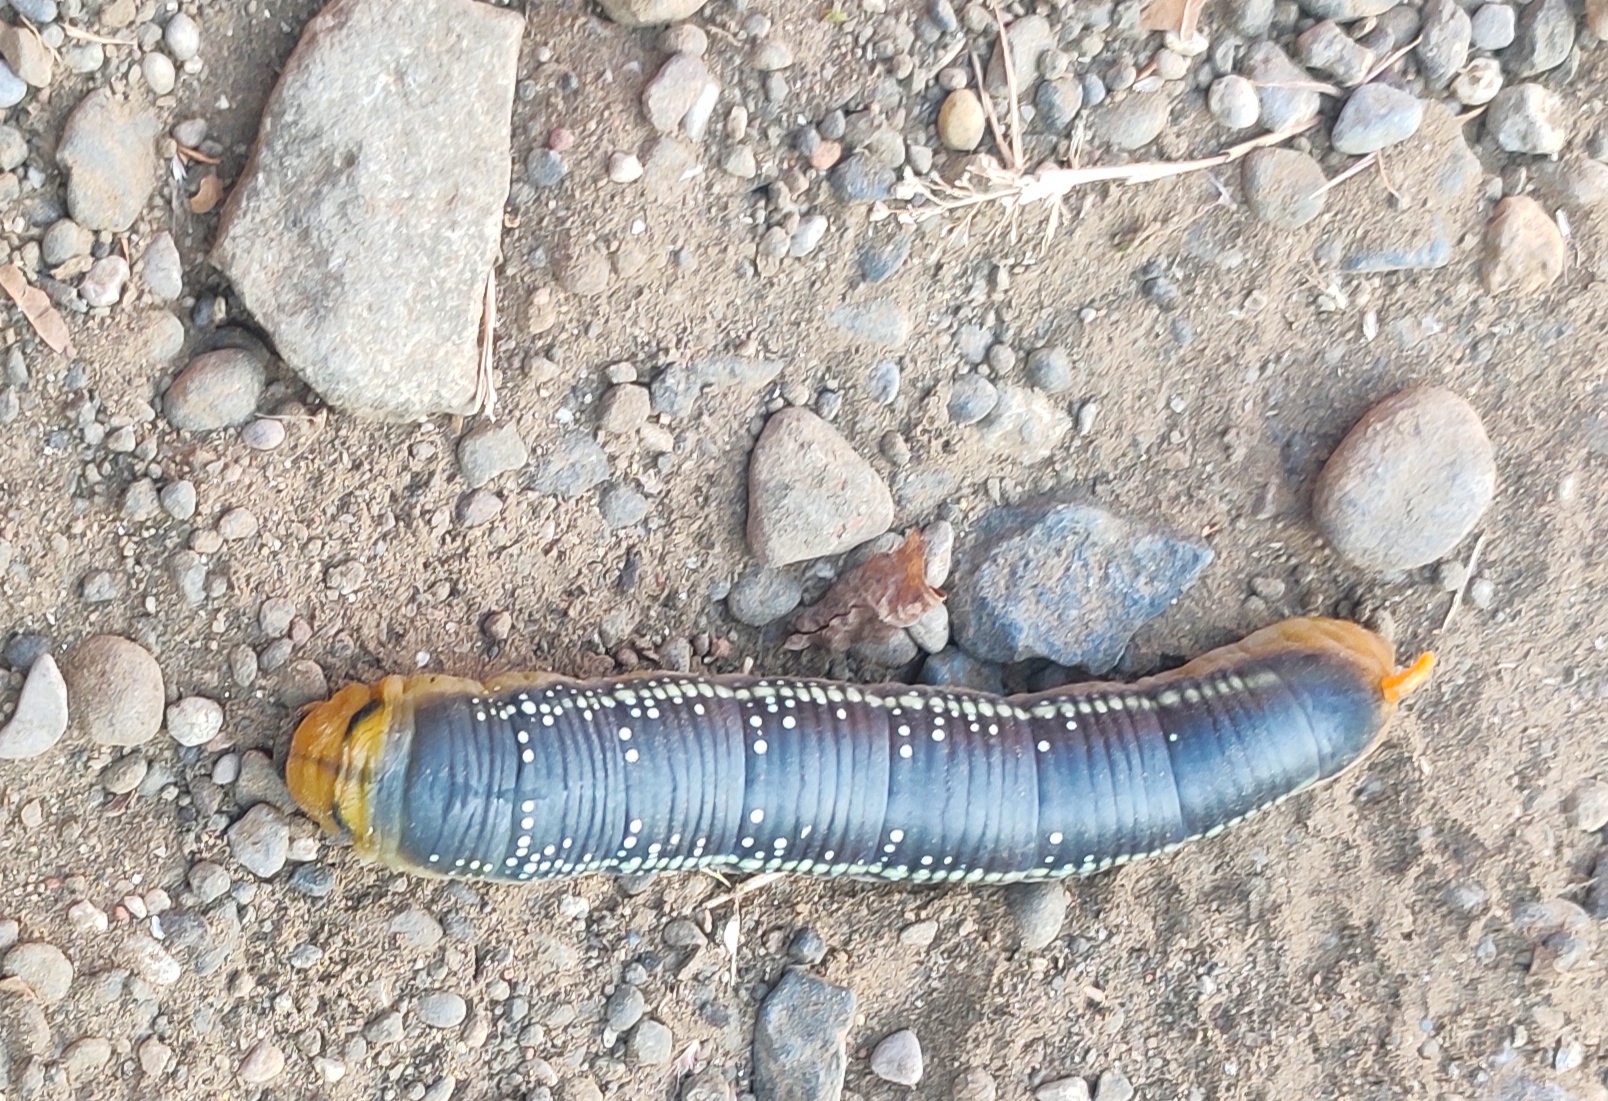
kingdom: Animalia
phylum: Arthropoda
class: Insecta
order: Lepidoptera
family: Sphingidae
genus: Daphnis
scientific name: Daphnis nerii
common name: Oleander hawk-moth
